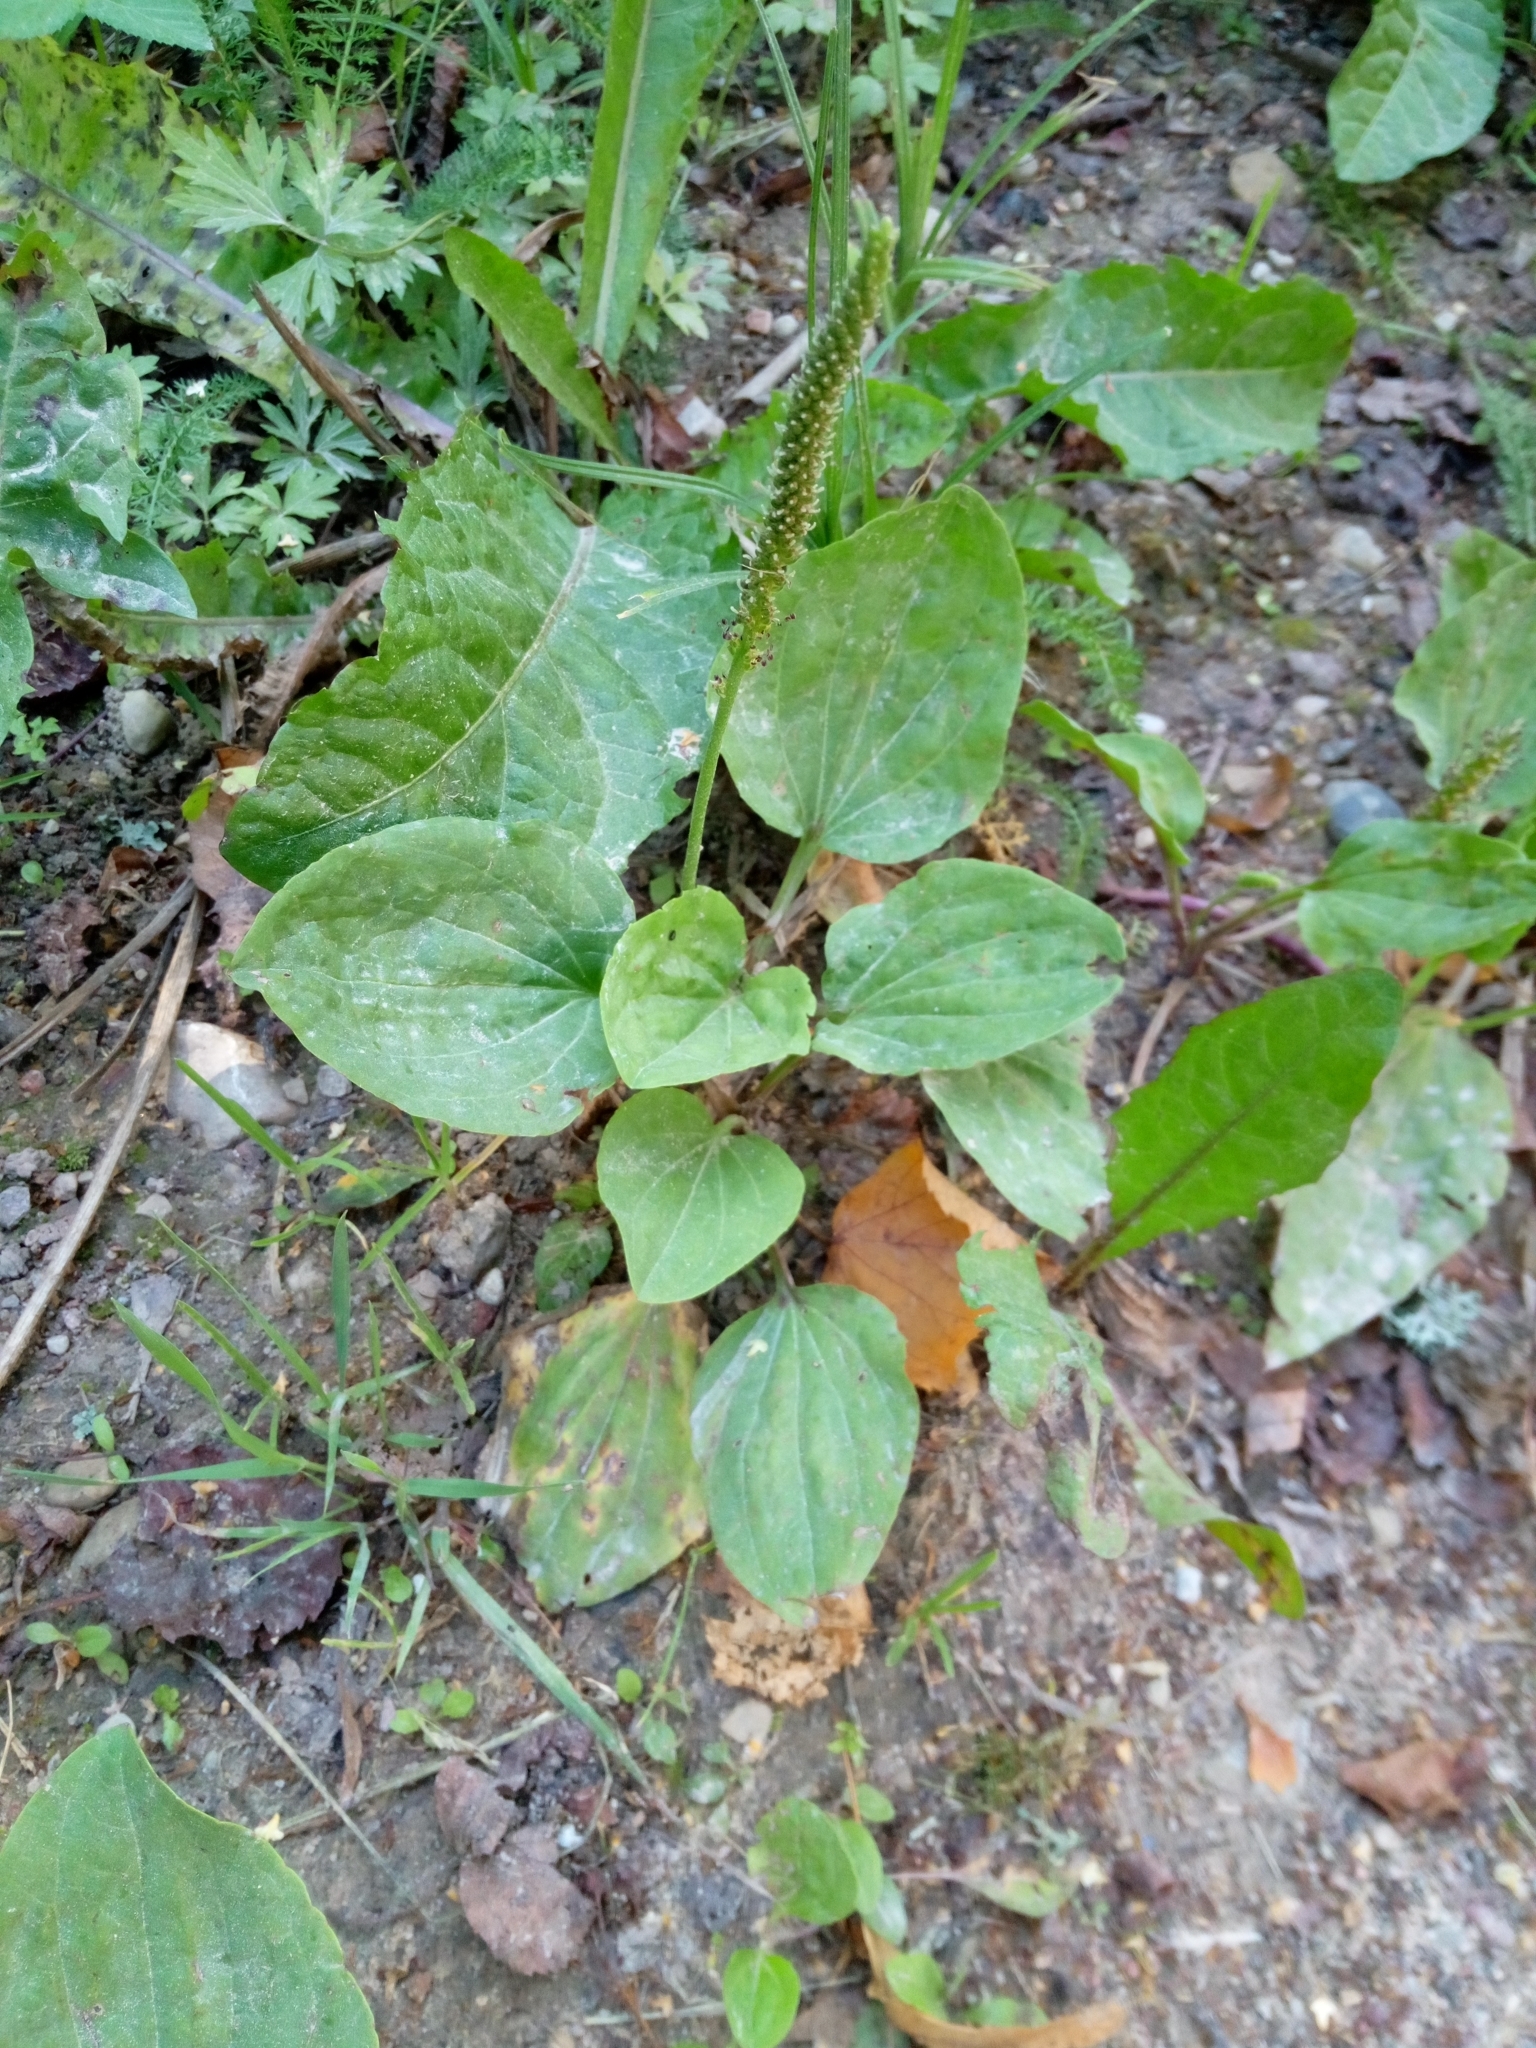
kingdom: Plantae
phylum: Tracheophyta
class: Magnoliopsida
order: Lamiales
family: Plantaginaceae
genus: Plantago
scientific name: Plantago major
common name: Common plantain
